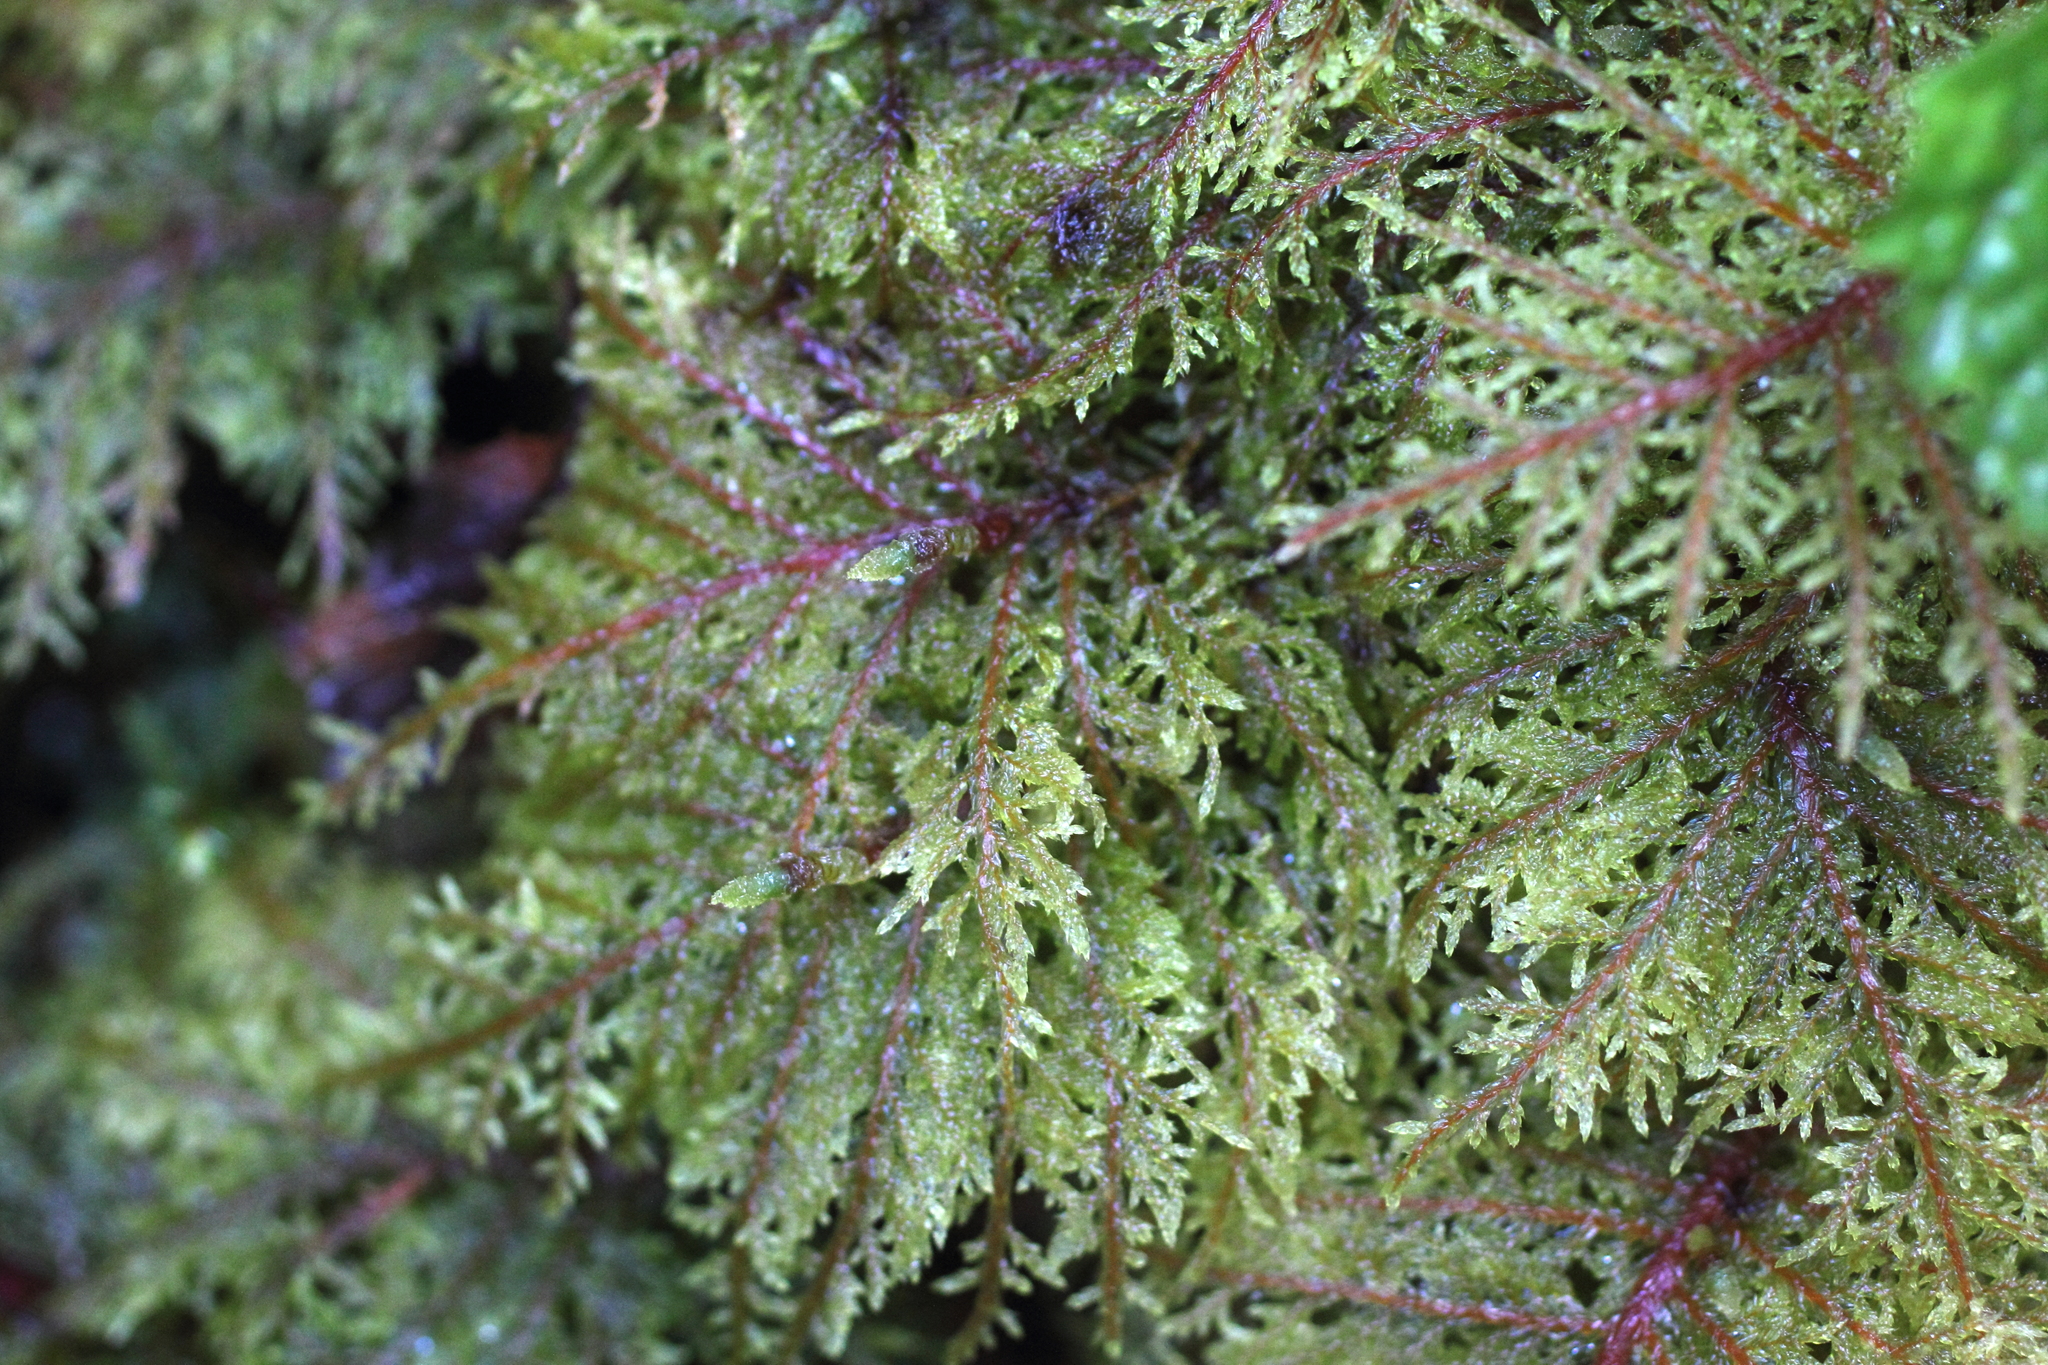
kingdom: Plantae
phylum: Bryophyta
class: Bryopsida
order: Hypnales
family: Hylocomiaceae
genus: Hylocomium
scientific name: Hylocomium splendens
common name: Stairstep moss
